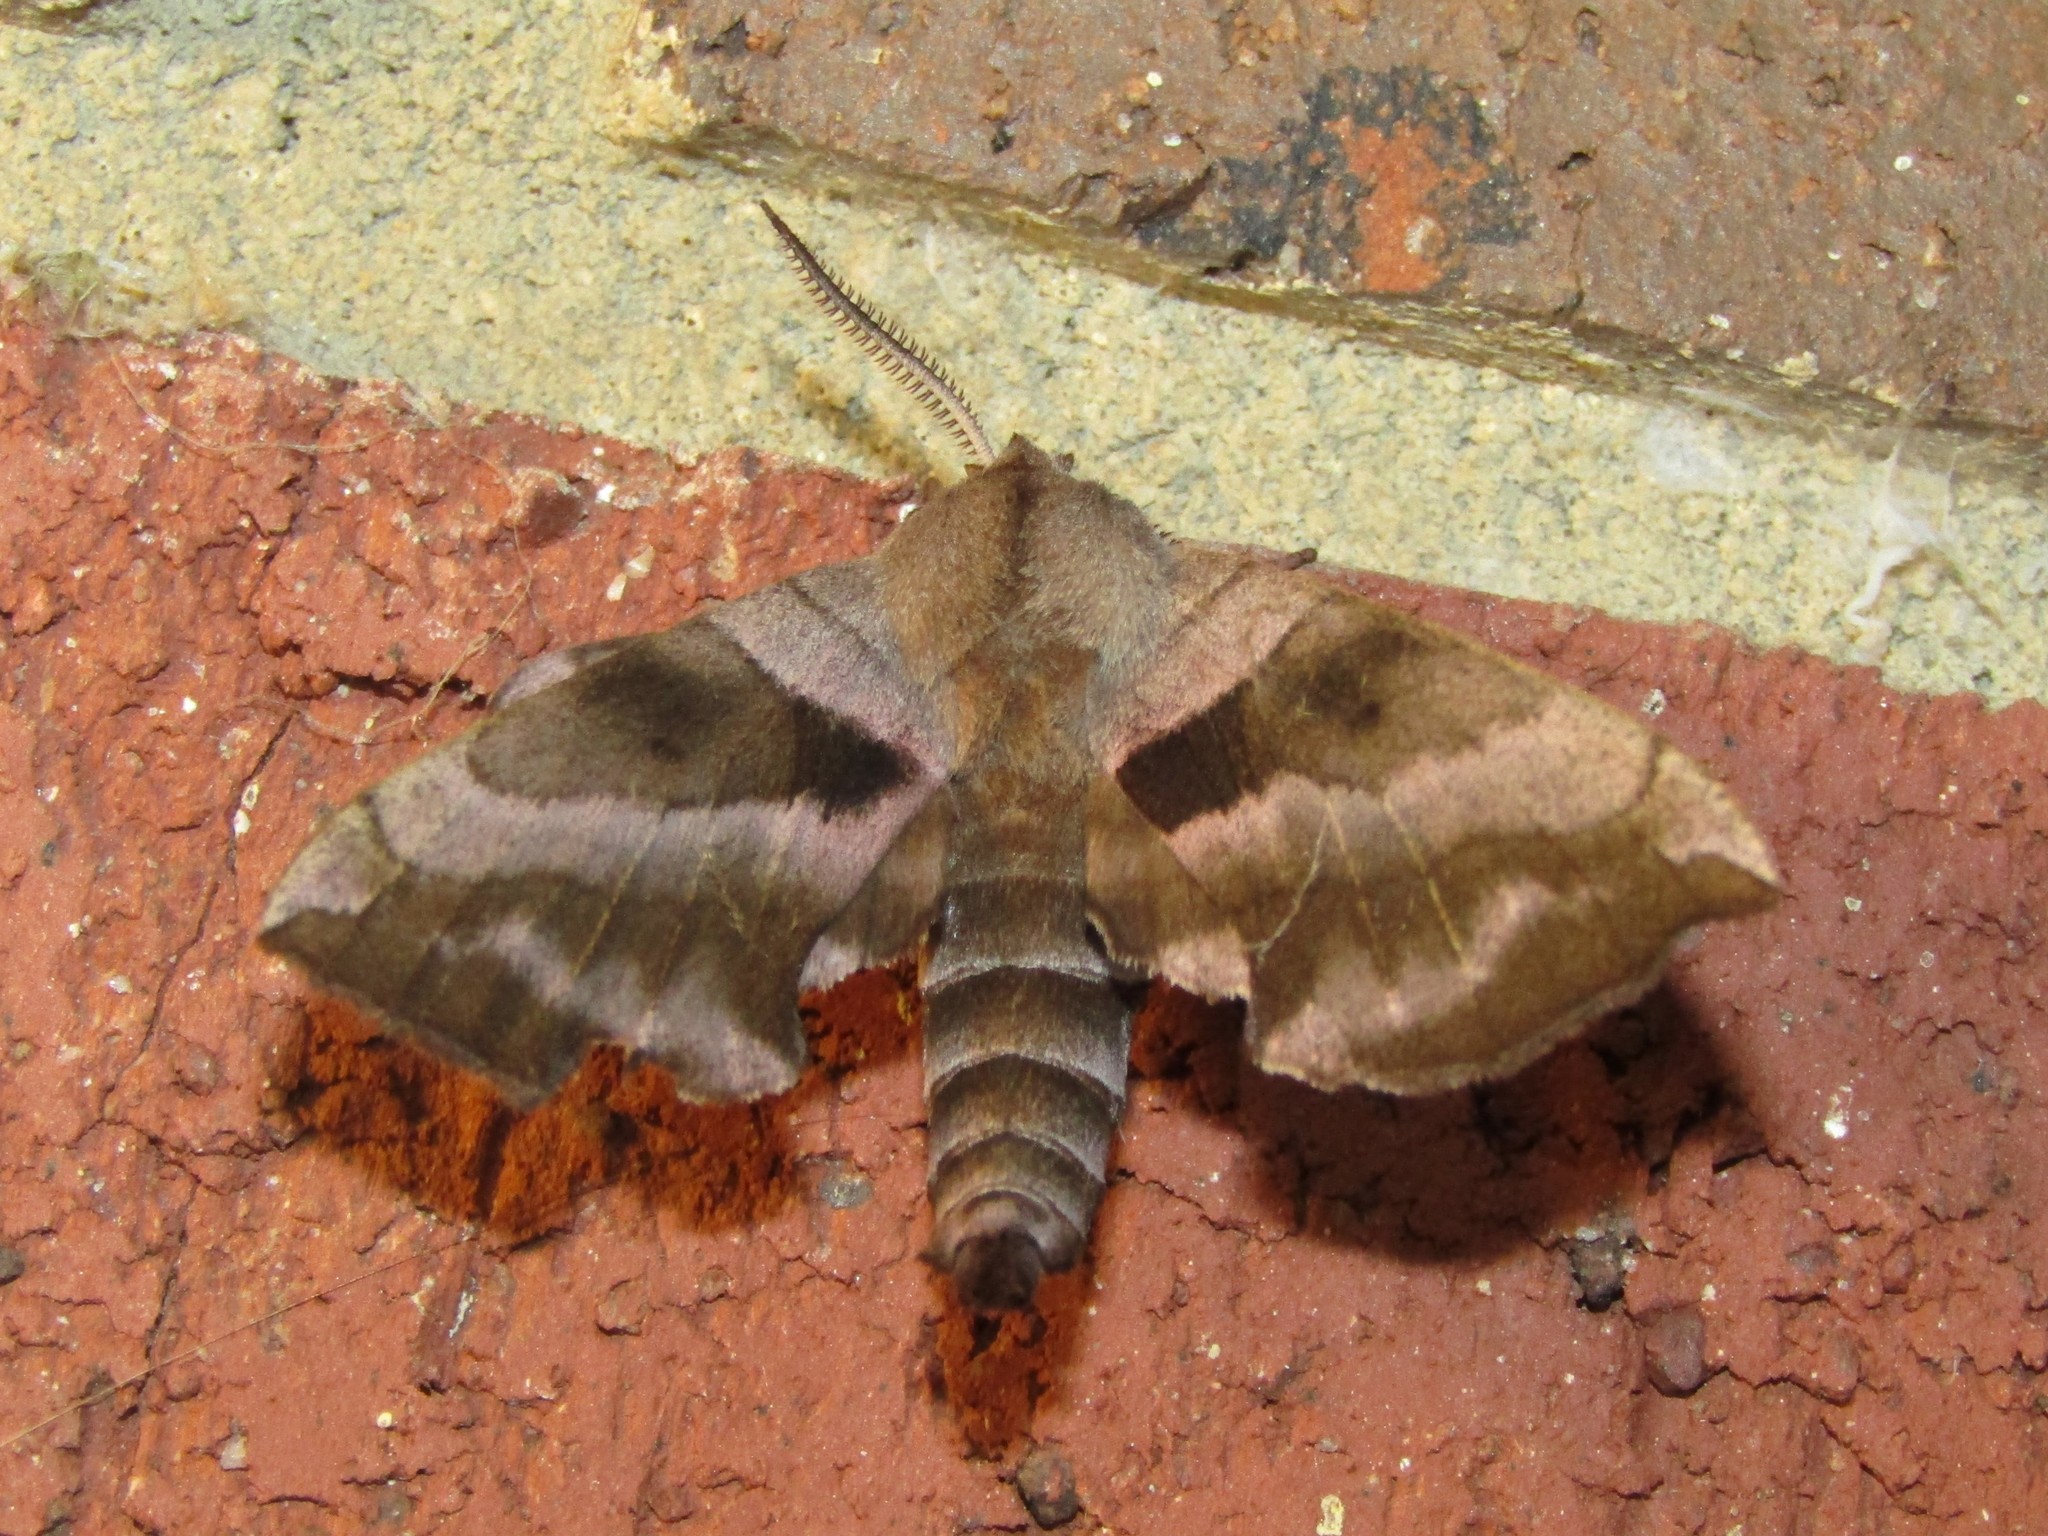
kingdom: Animalia
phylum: Arthropoda
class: Insecta
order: Lepidoptera
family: Sphingidae
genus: Amorpha
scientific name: Amorpha juglandis
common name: Walnut sphinx
